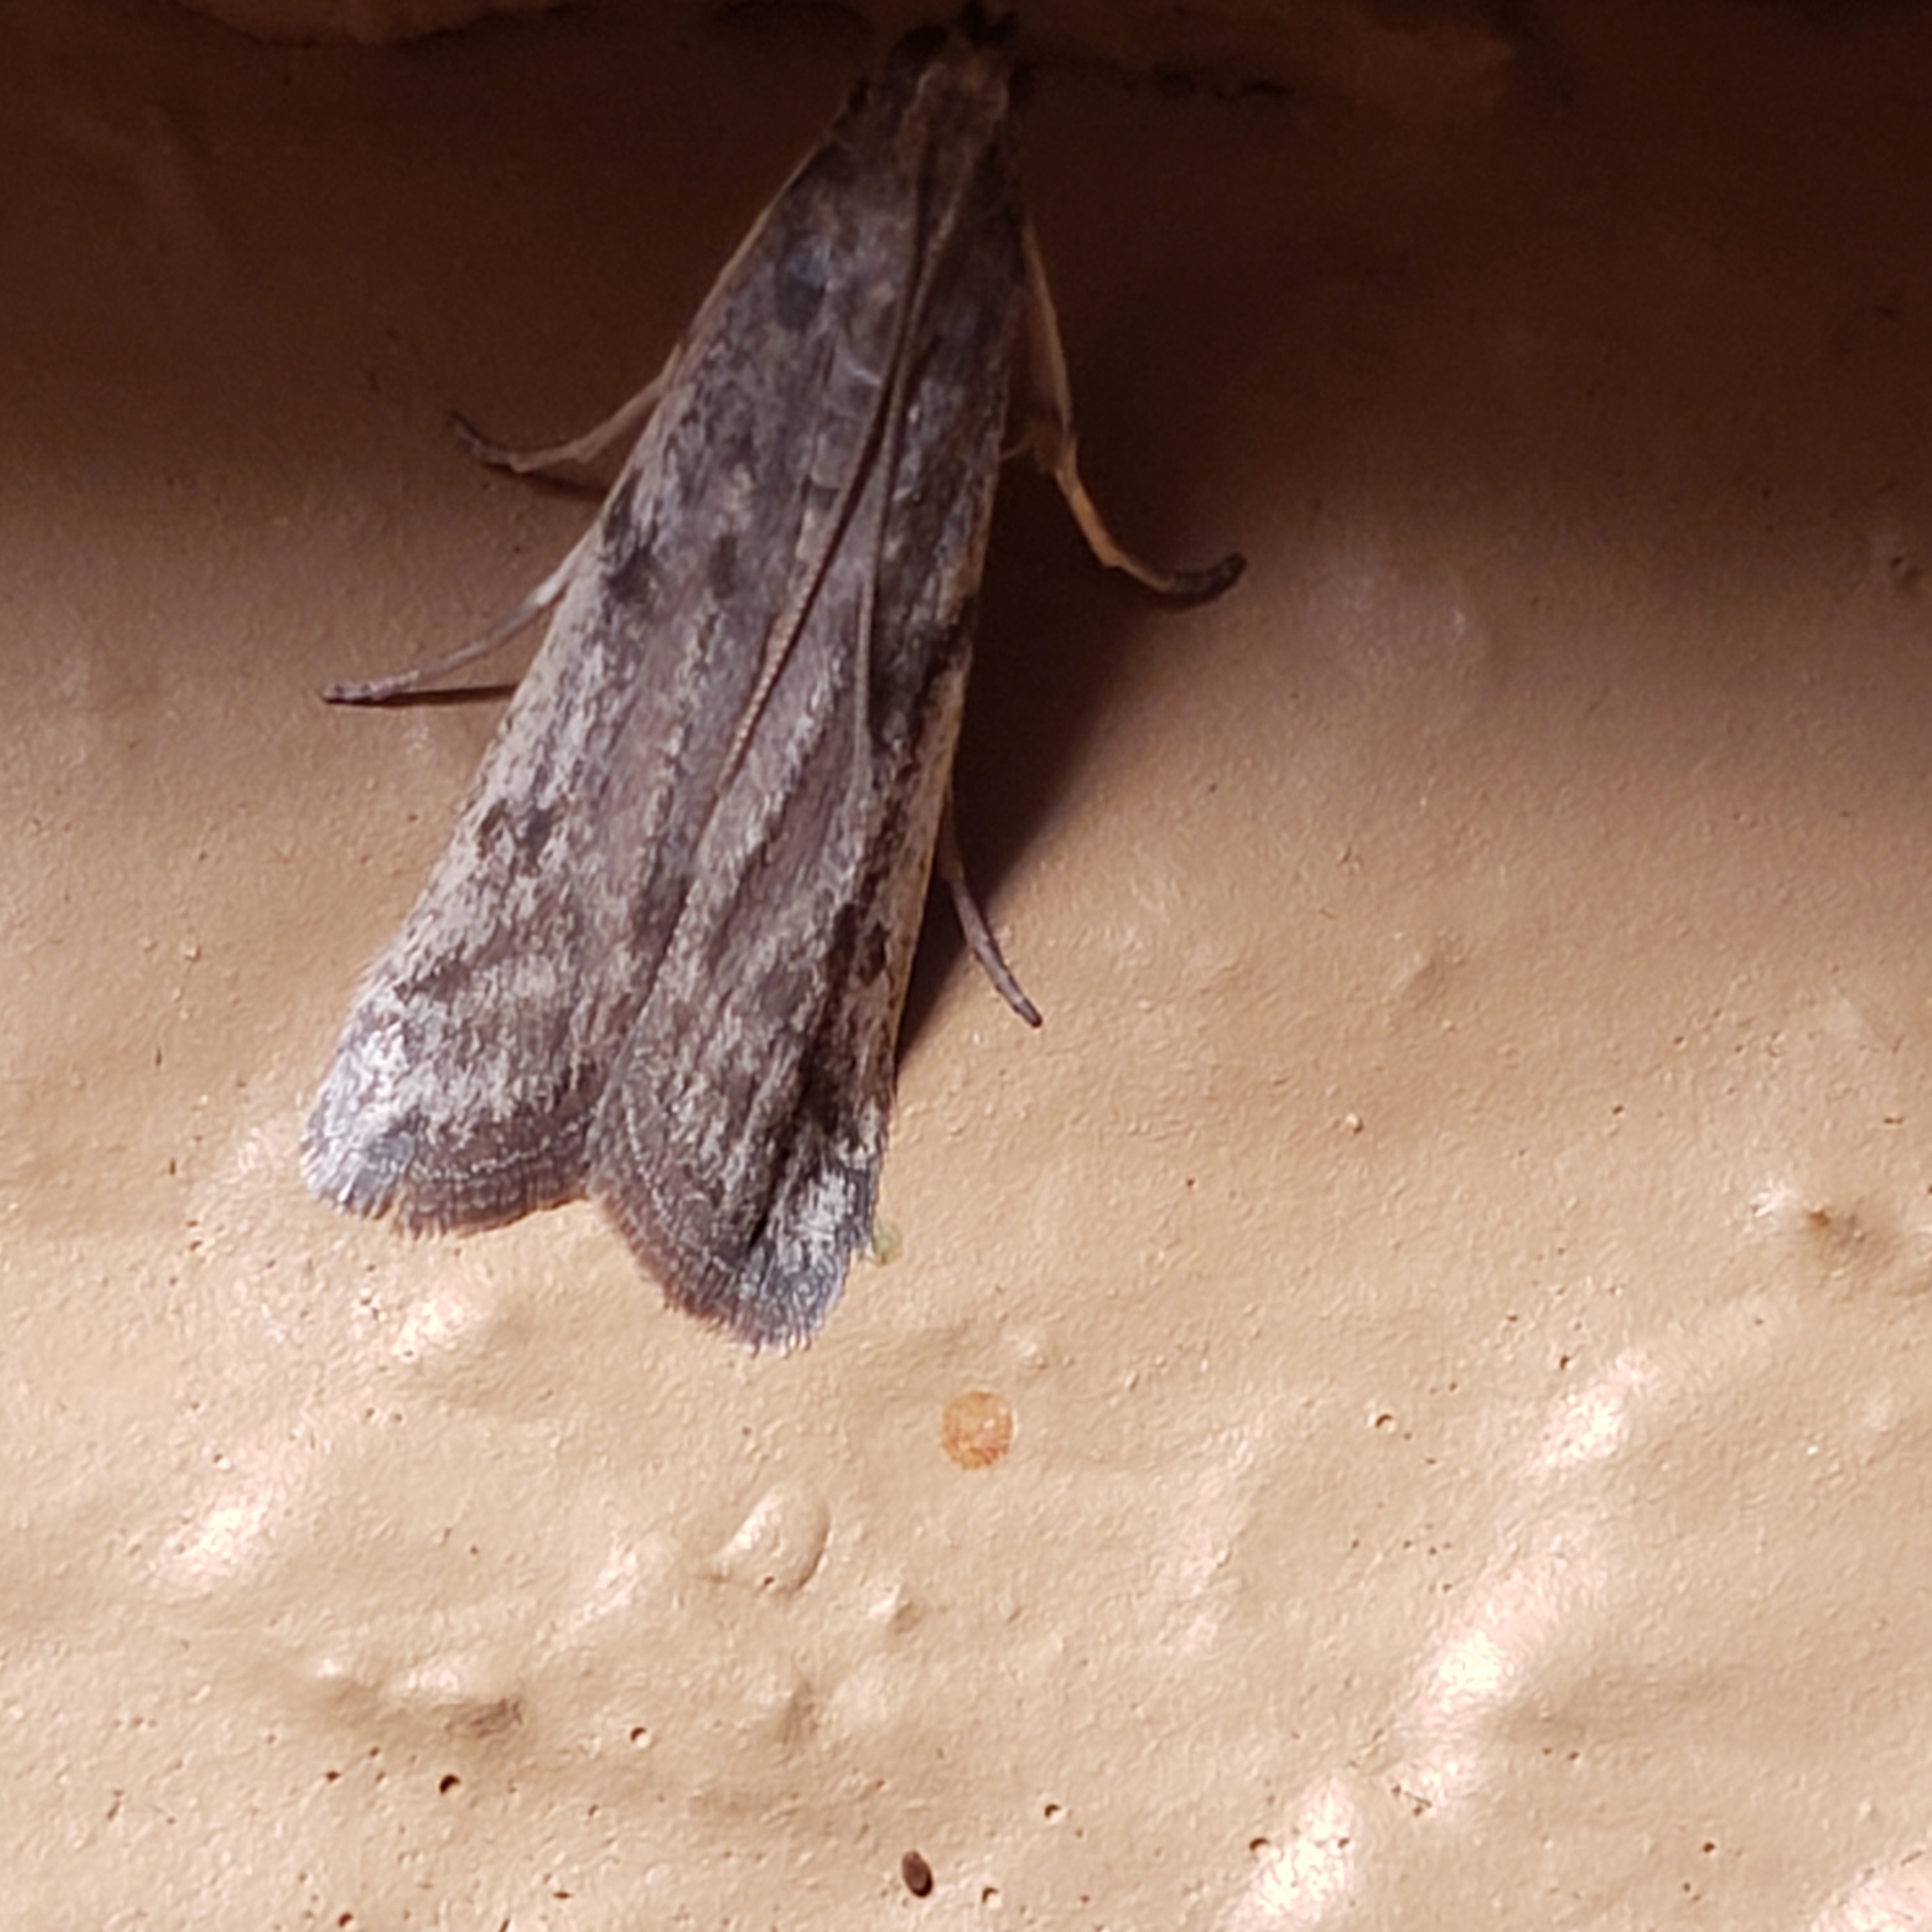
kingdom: Animalia
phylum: Arthropoda
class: Insecta
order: Lepidoptera
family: Pyralidae
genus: Phycitodes
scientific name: Phycitodes mucidellus
